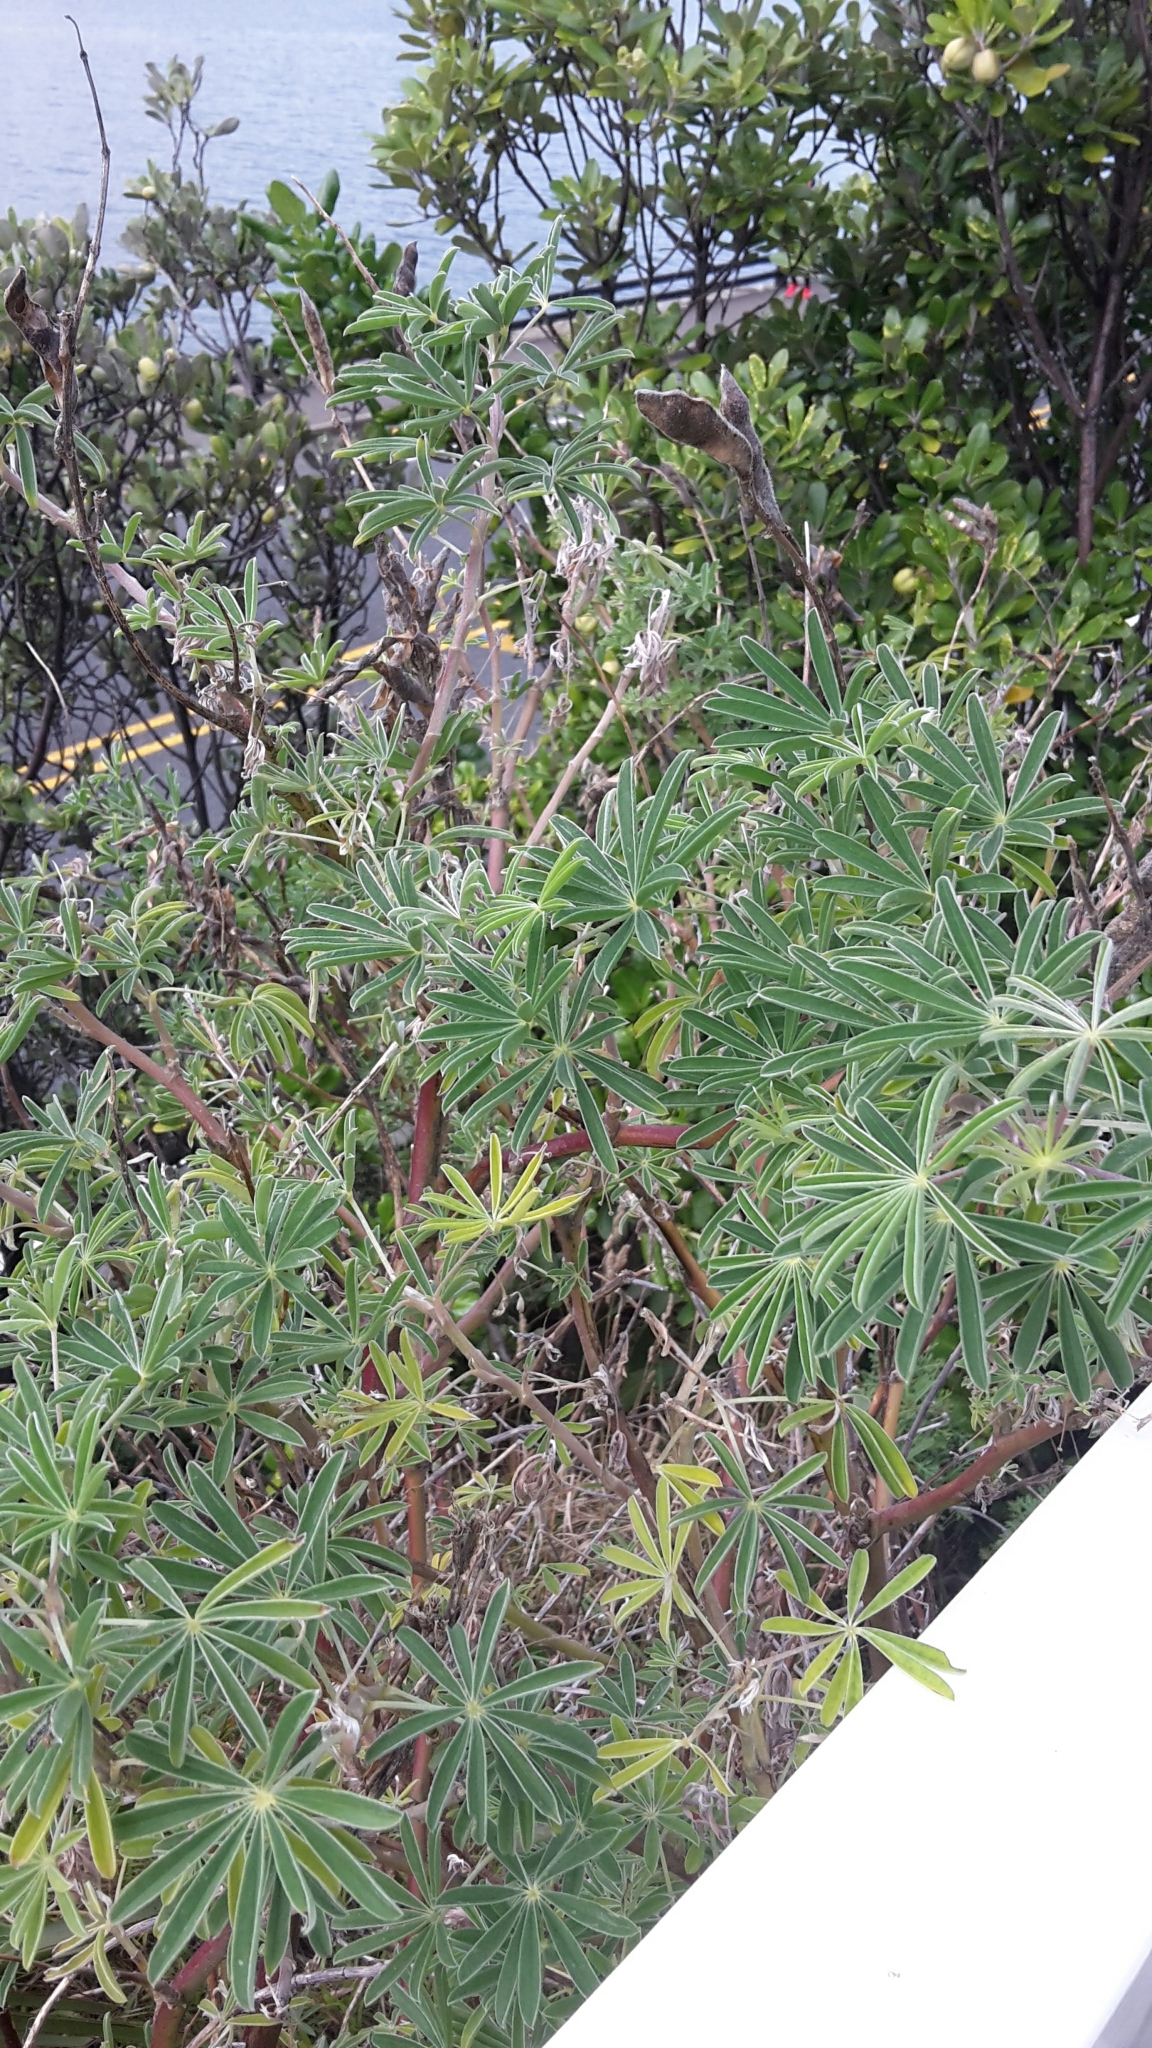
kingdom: Plantae
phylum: Tracheophyta
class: Magnoliopsida
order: Fabales
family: Fabaceae
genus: Lupinus
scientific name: Lupinus arboreus
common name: Yellow bush lupine
